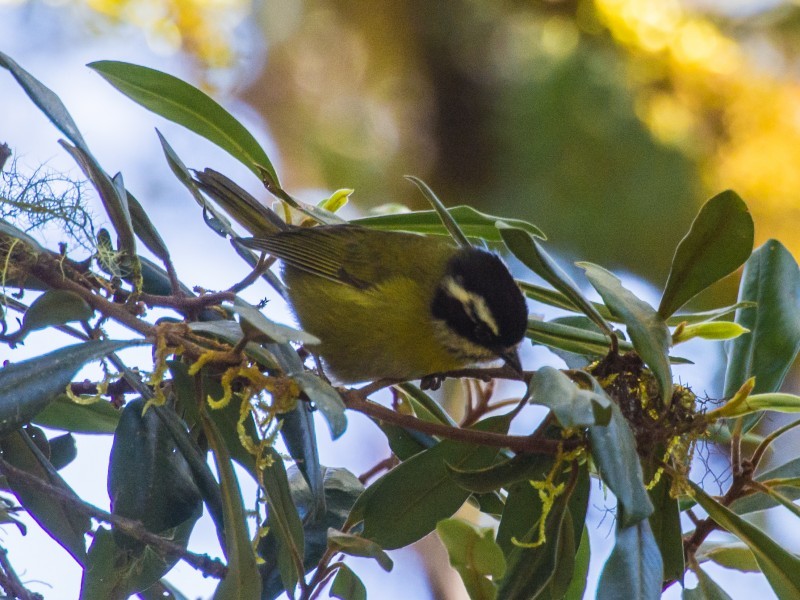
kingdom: Animalia
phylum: Chordata
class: Aves
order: Passeriformes
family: Passerellidae
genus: Chlorospingus
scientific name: Chlorospingus pileatus
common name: Sooty-capped bush-tanager
